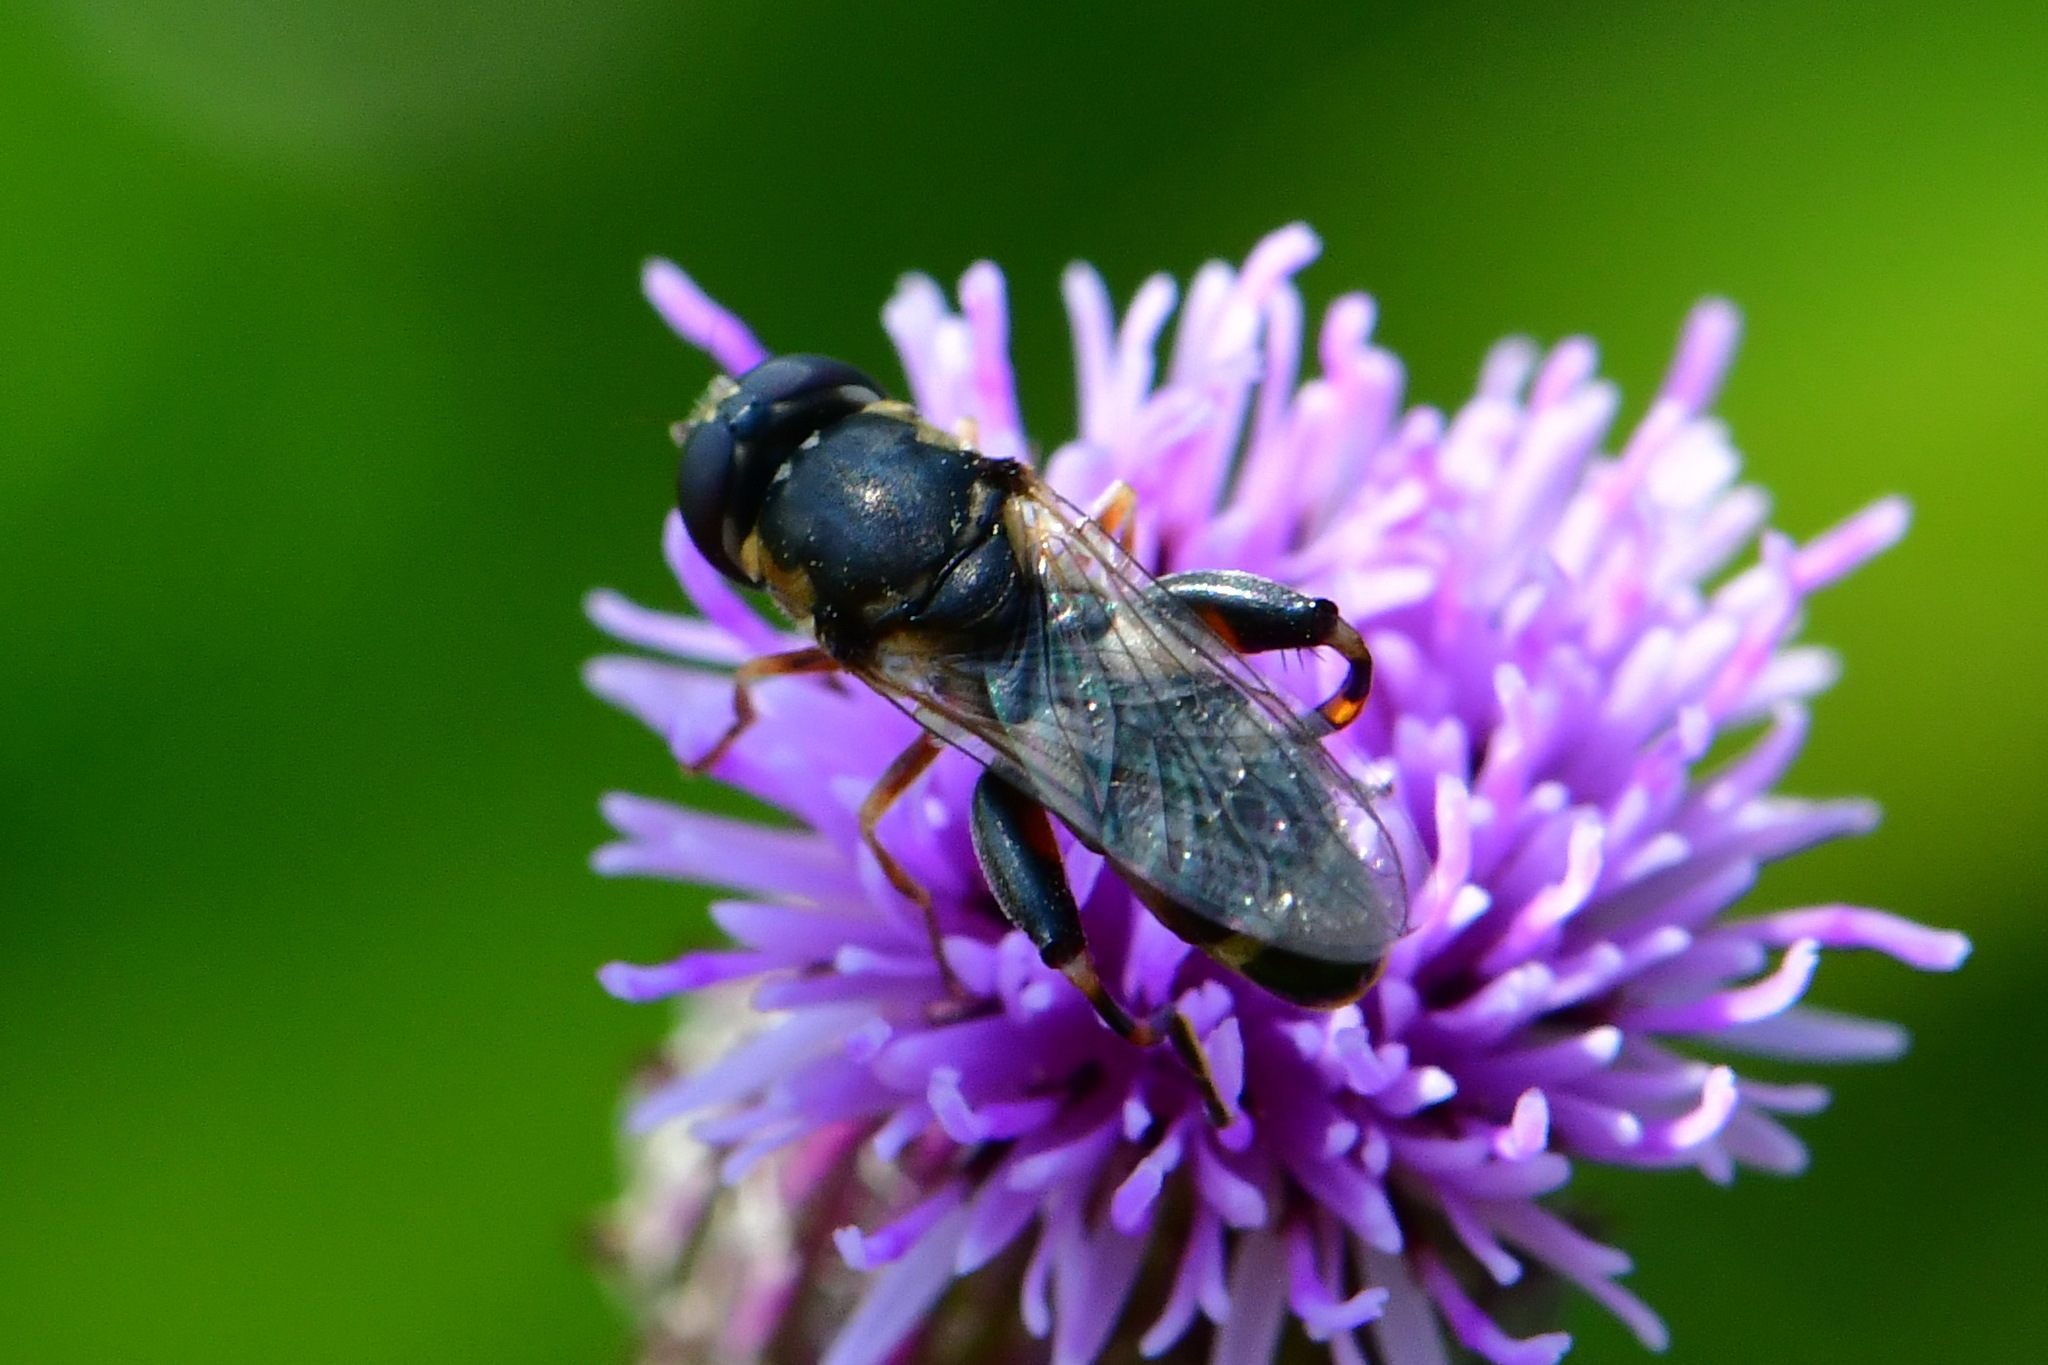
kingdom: Animalia
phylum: Arthropoda
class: Insecta
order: Diptera
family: Syrphidae
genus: Syritta
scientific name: Syritta pipiens
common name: Hover fly
